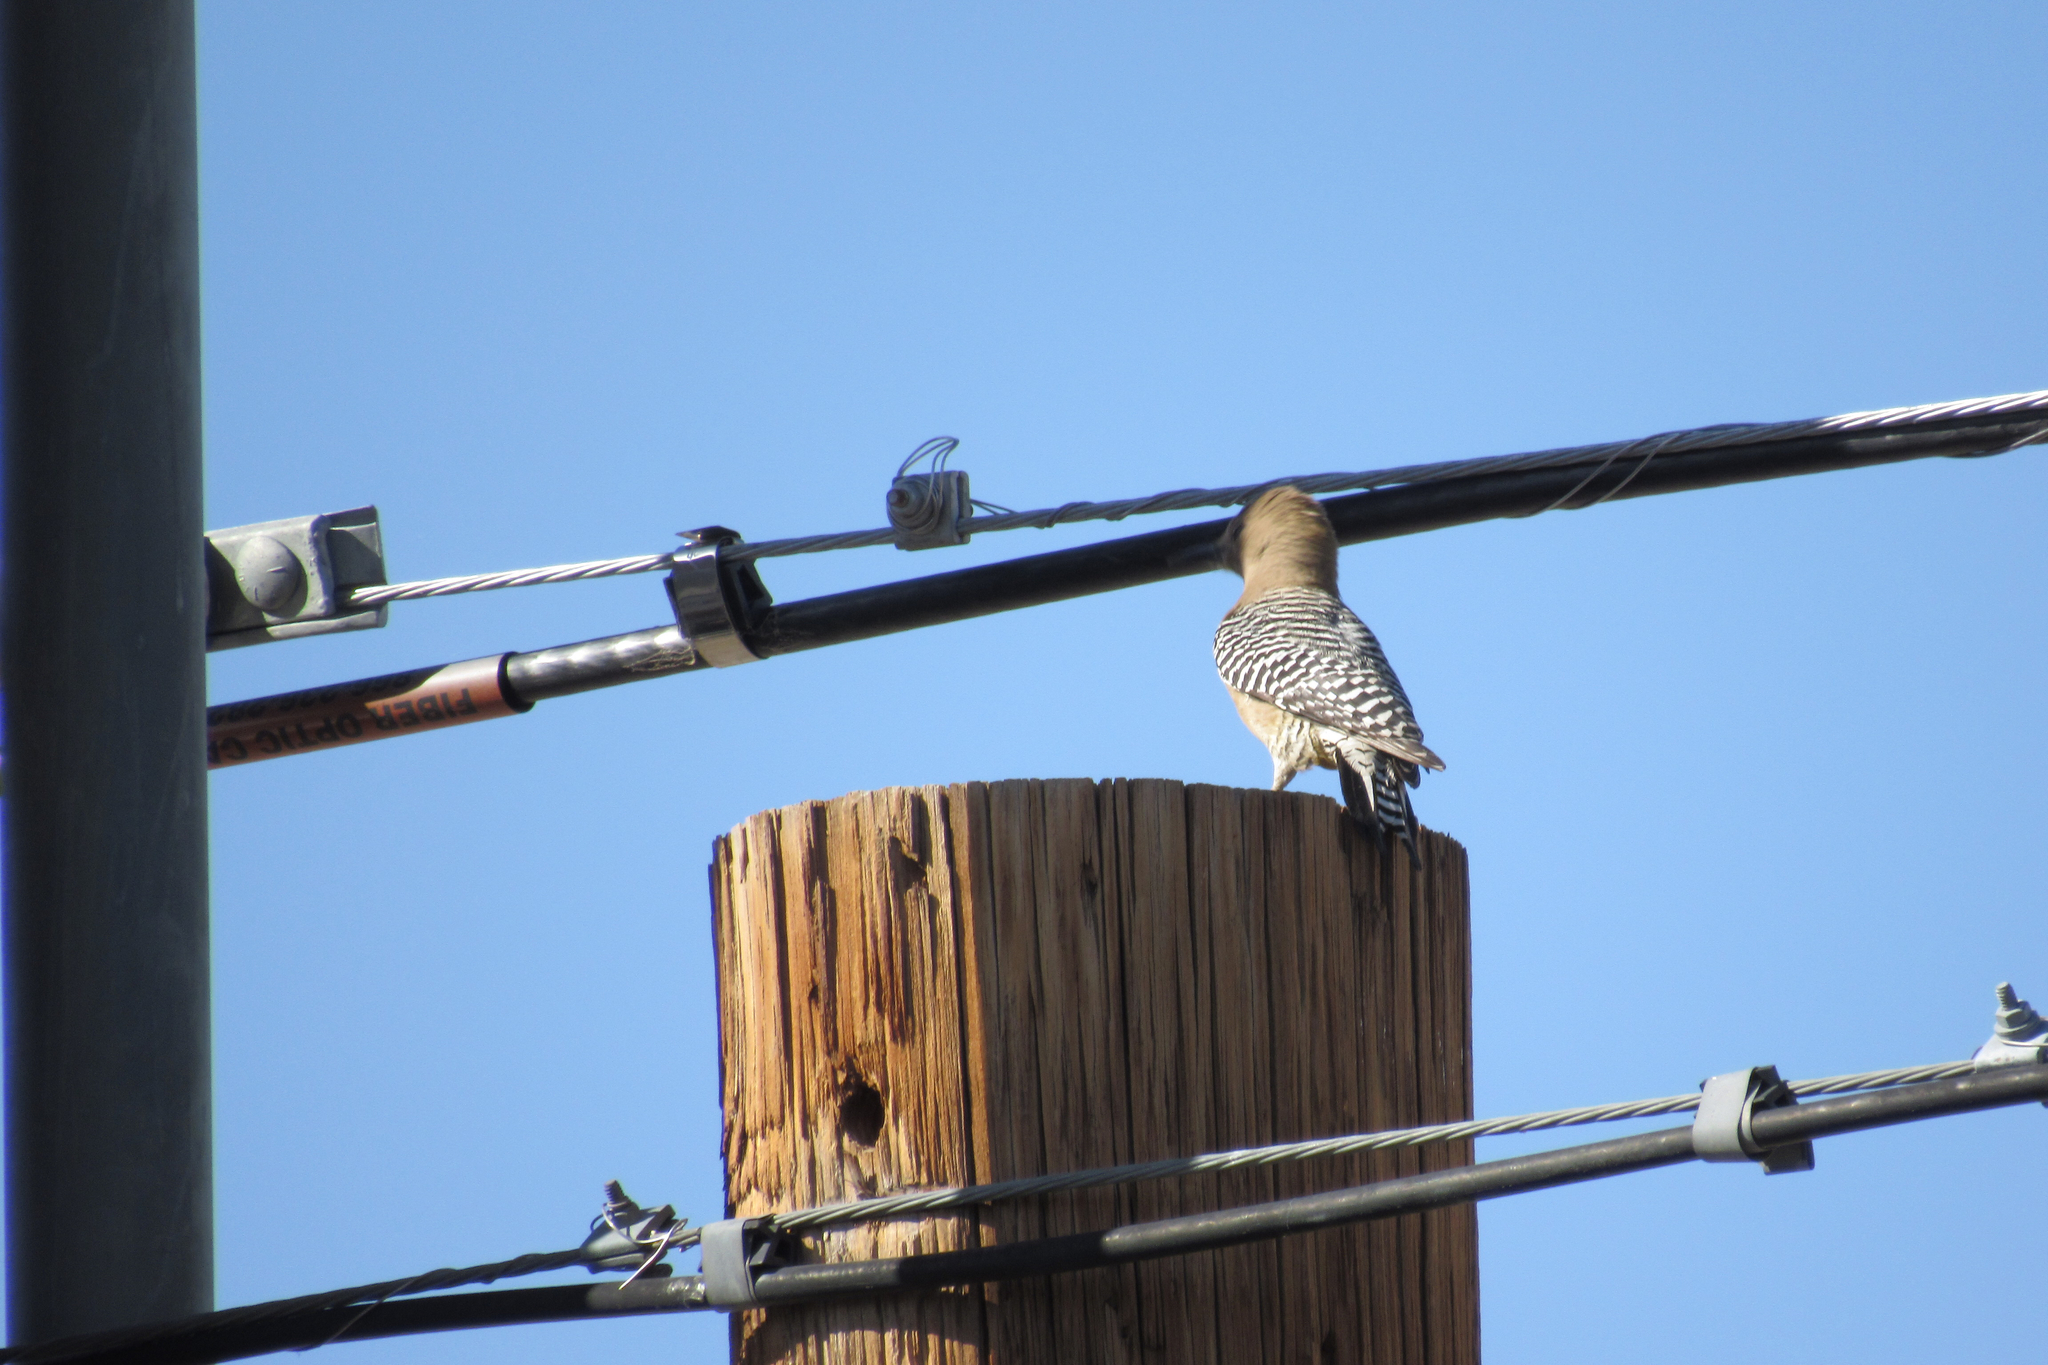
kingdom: Animalia
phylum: Chordata
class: Aves
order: Piciformes
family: Picidae
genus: Melanerpes
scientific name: Melanerpes uropygialis
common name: Gila woodpecker
